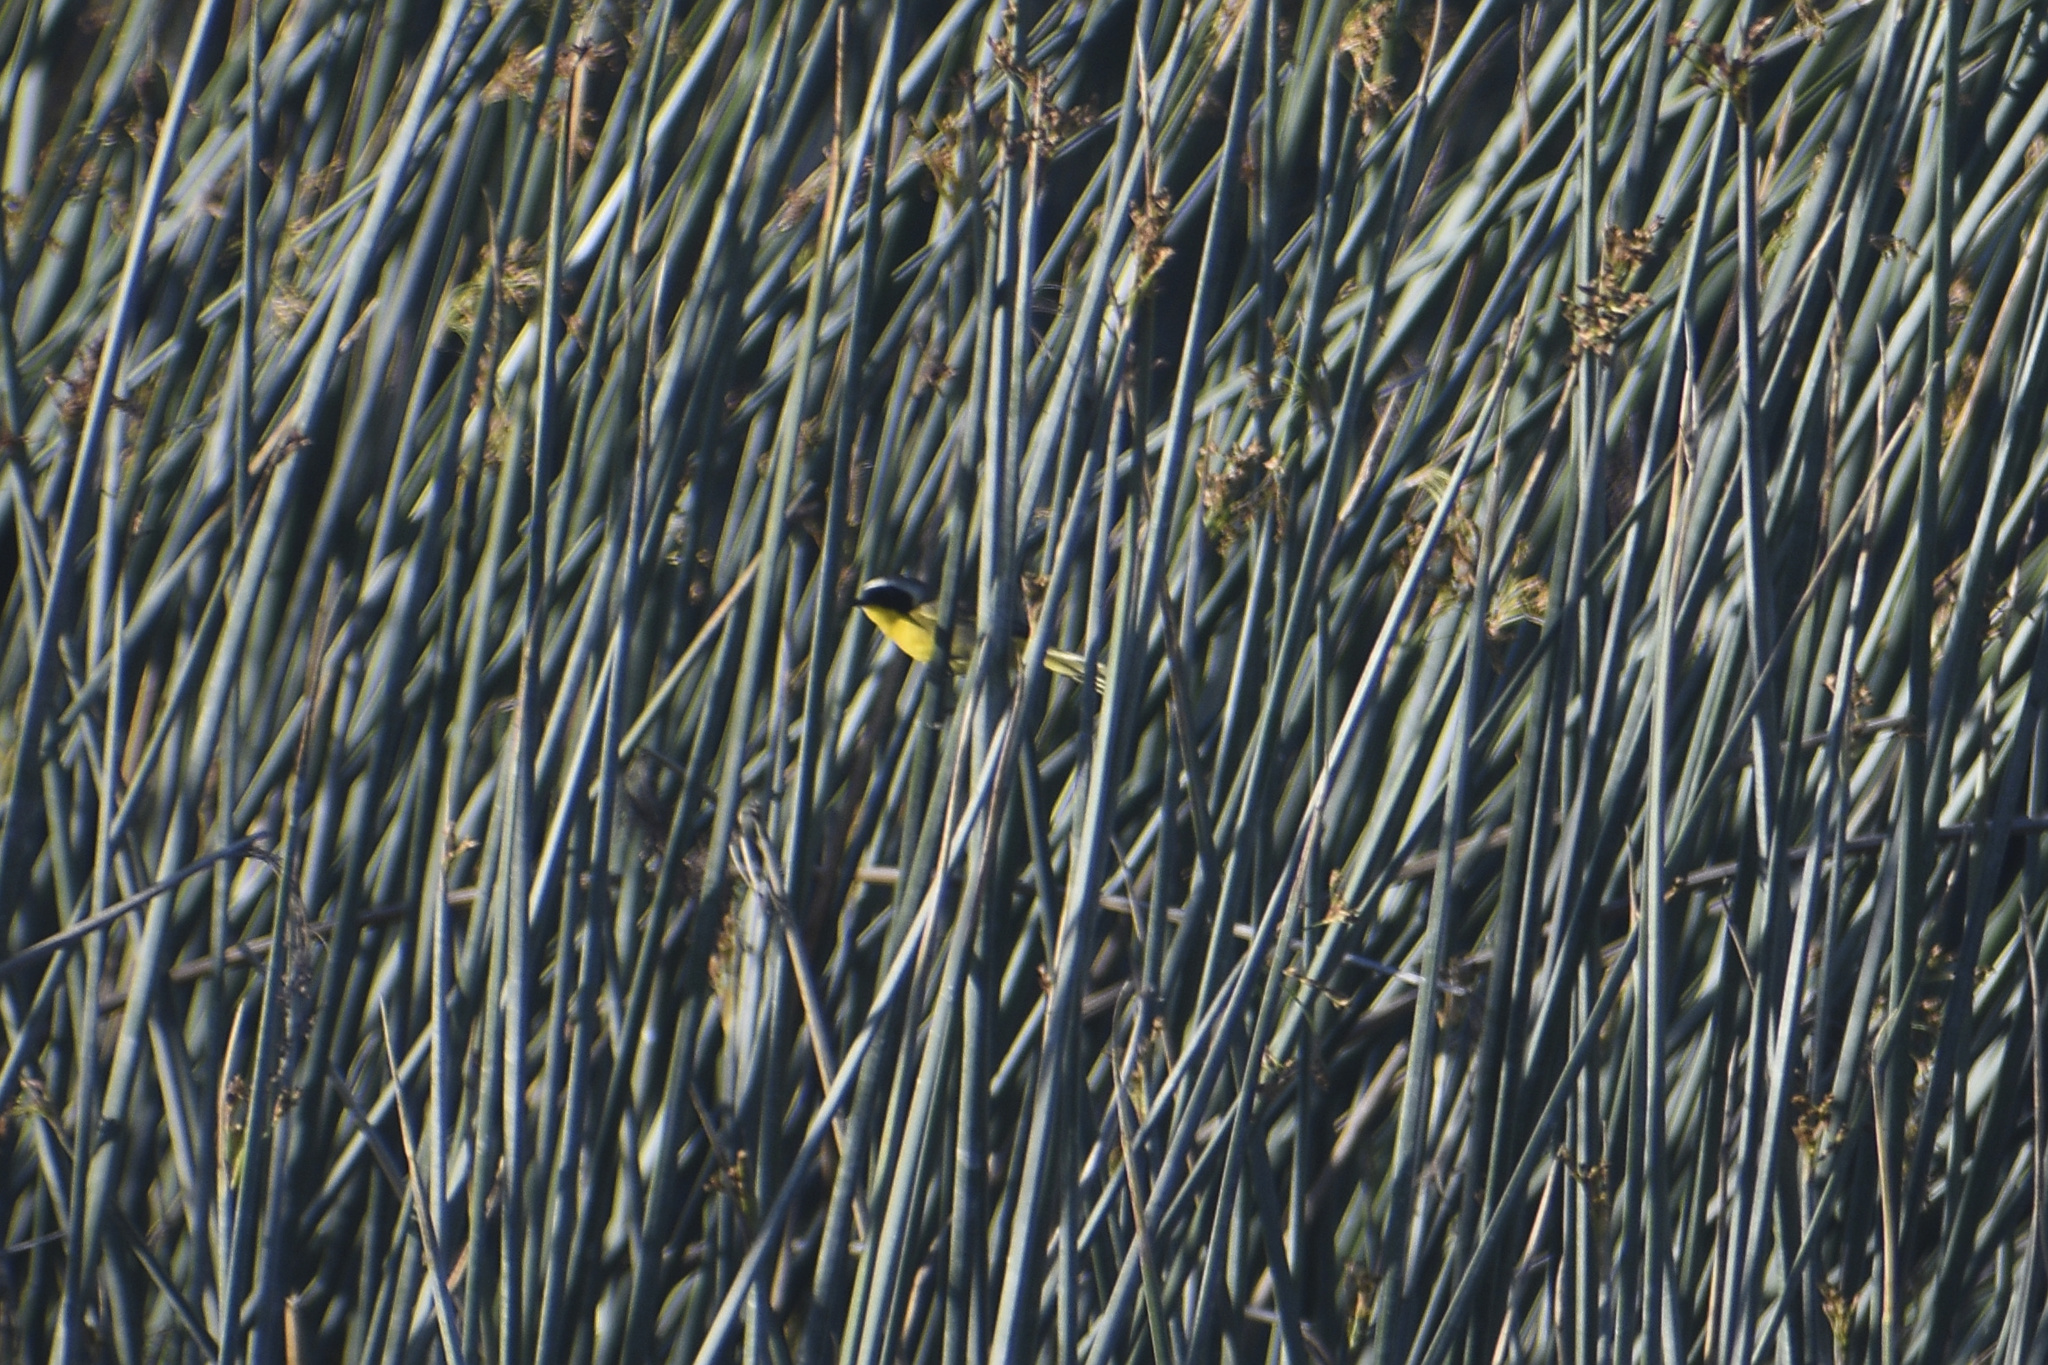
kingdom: Animalia
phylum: Chordata
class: Aves
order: Passeriformes
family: Parulidae
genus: Geothlypis
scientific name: Geothlypis trichas
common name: Common yellowthroat
